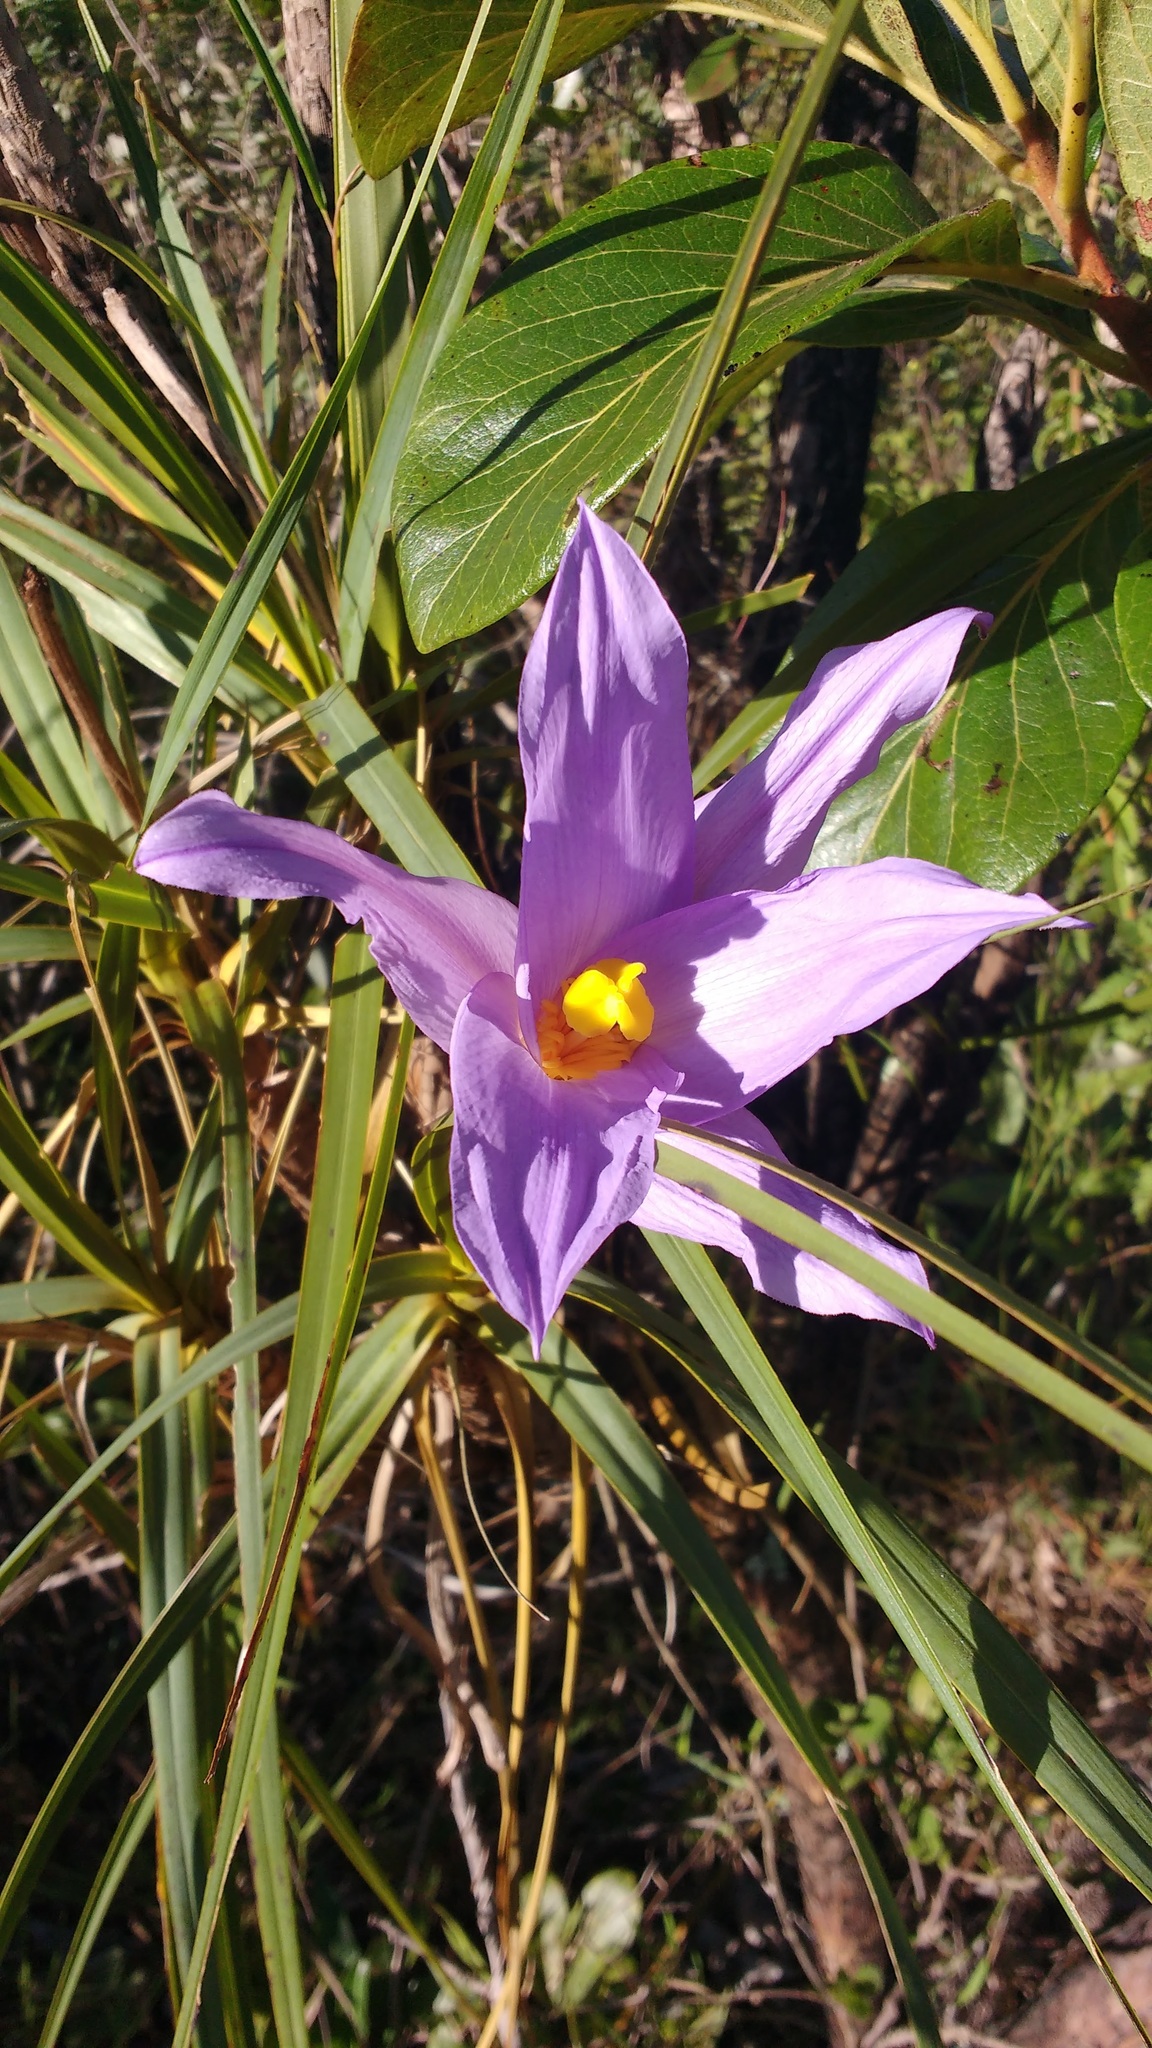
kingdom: Plantae
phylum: Tracheophyta
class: Liliopsida
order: Pandanales
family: Velloziaceae
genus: Vellozia
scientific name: Vellozia squamata
